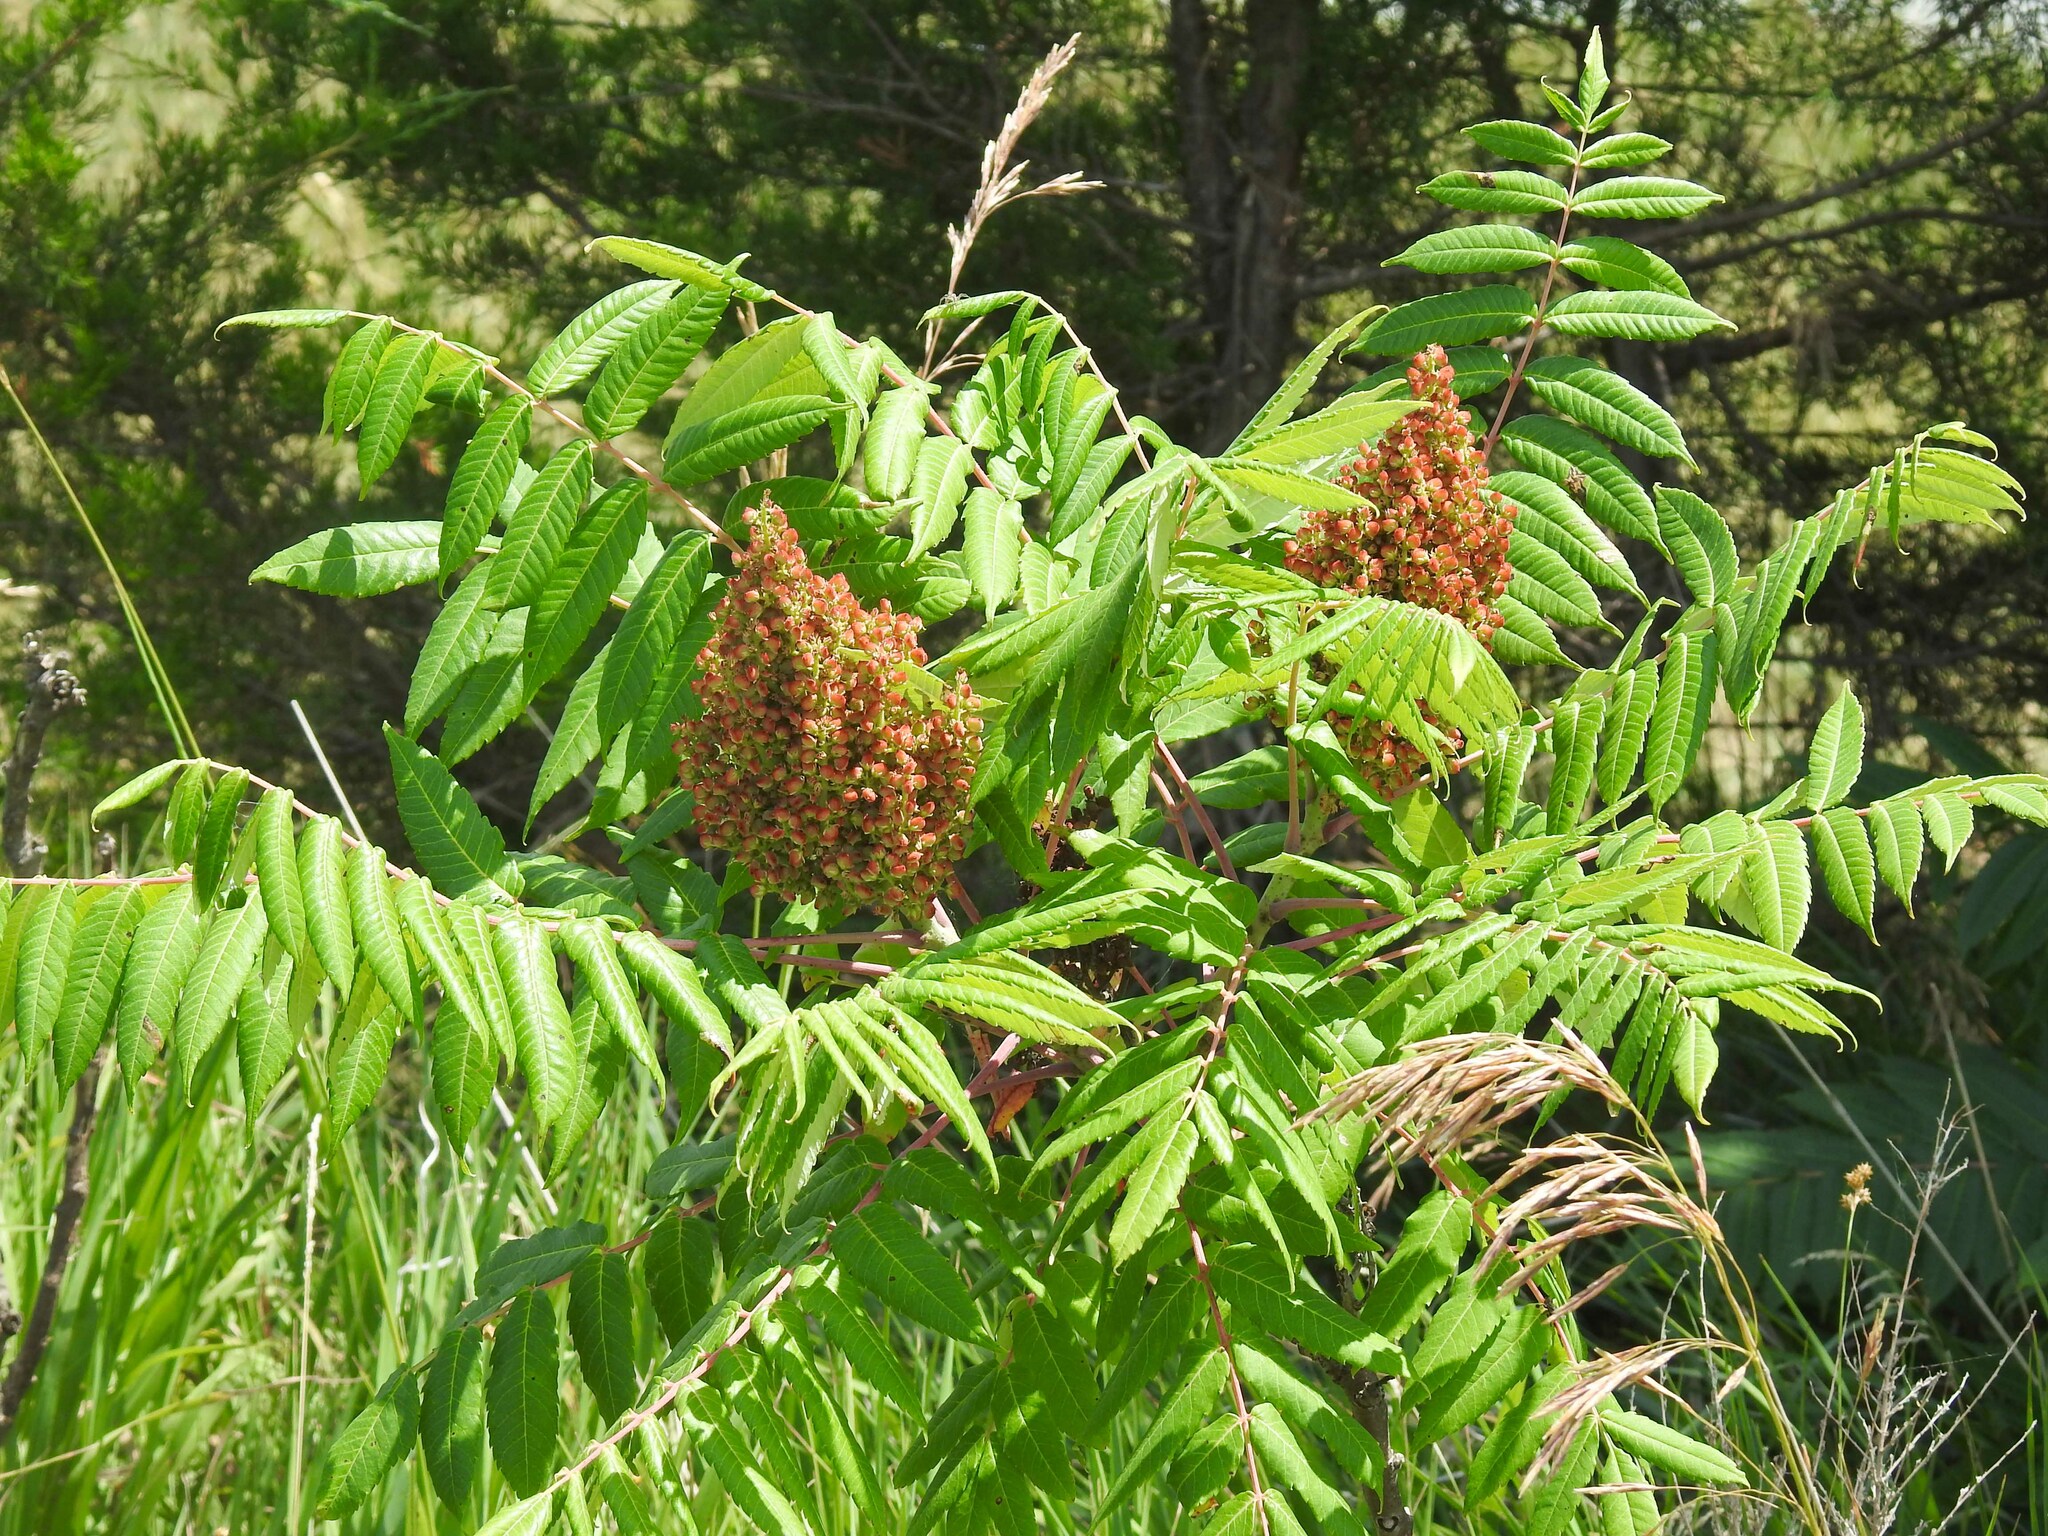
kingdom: Plantae
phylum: Tracheophyta
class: Magnoliopsida
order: Sapindales
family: Anacardiaceae
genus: Rhus
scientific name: Rhus glabra
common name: Scarlet sumac
